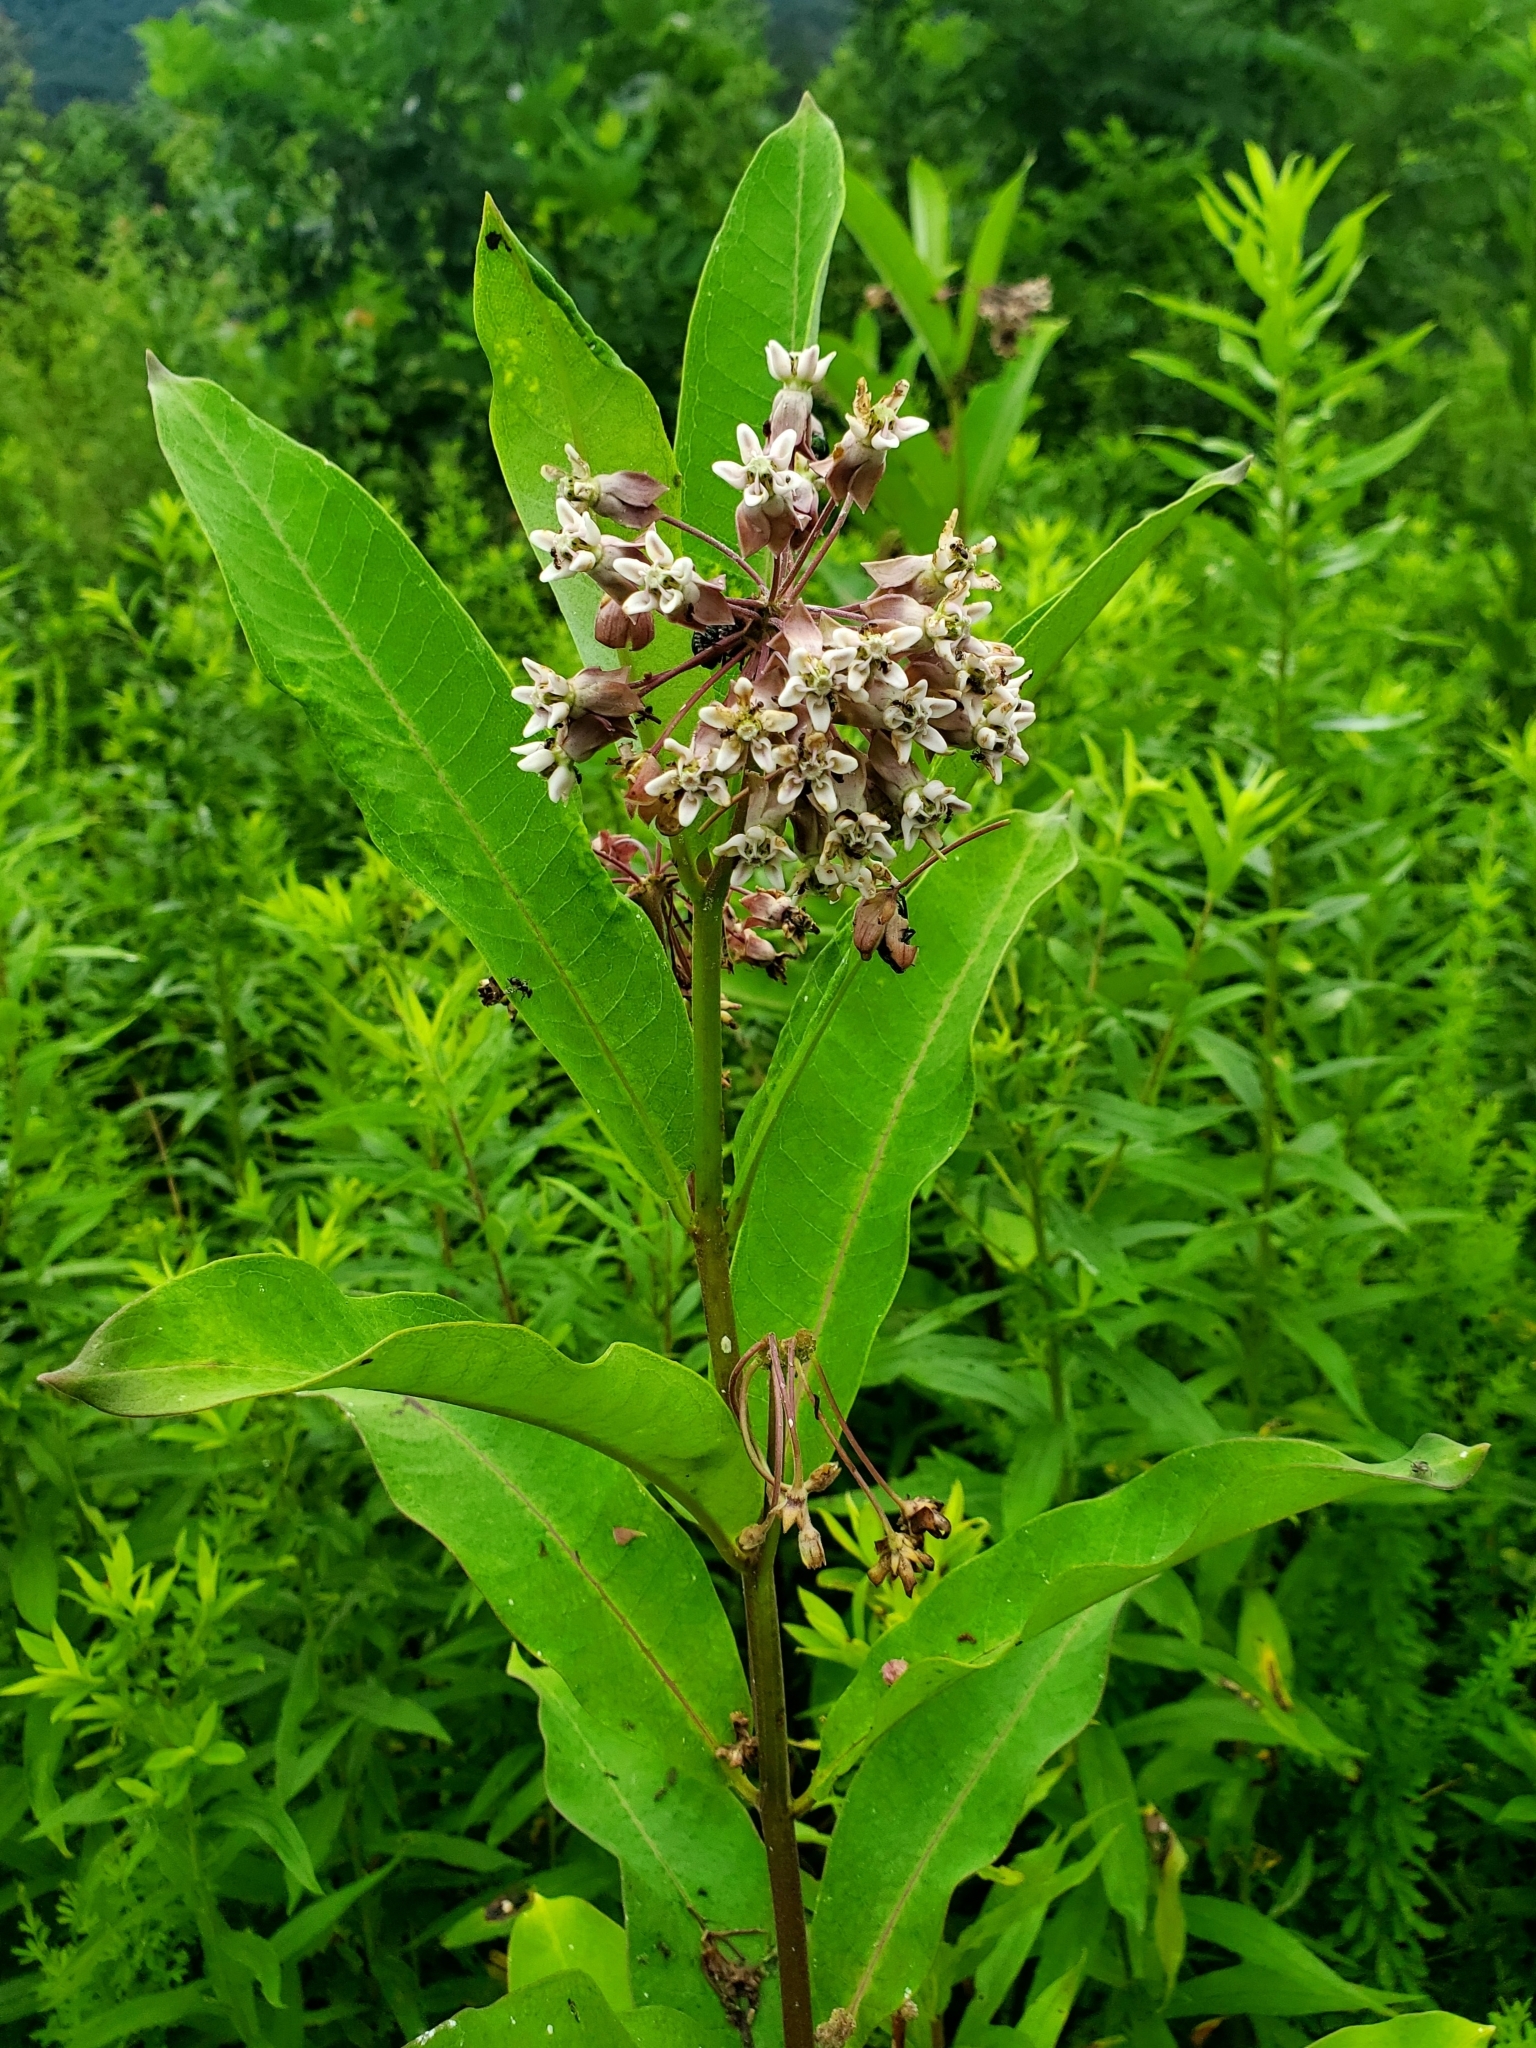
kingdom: Plantae
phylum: Tracheophyta
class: Magnoliopsida
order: Gentianales
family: Apocynaceae
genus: Asclepias
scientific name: Asclepias syriaca
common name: Common milkweed
